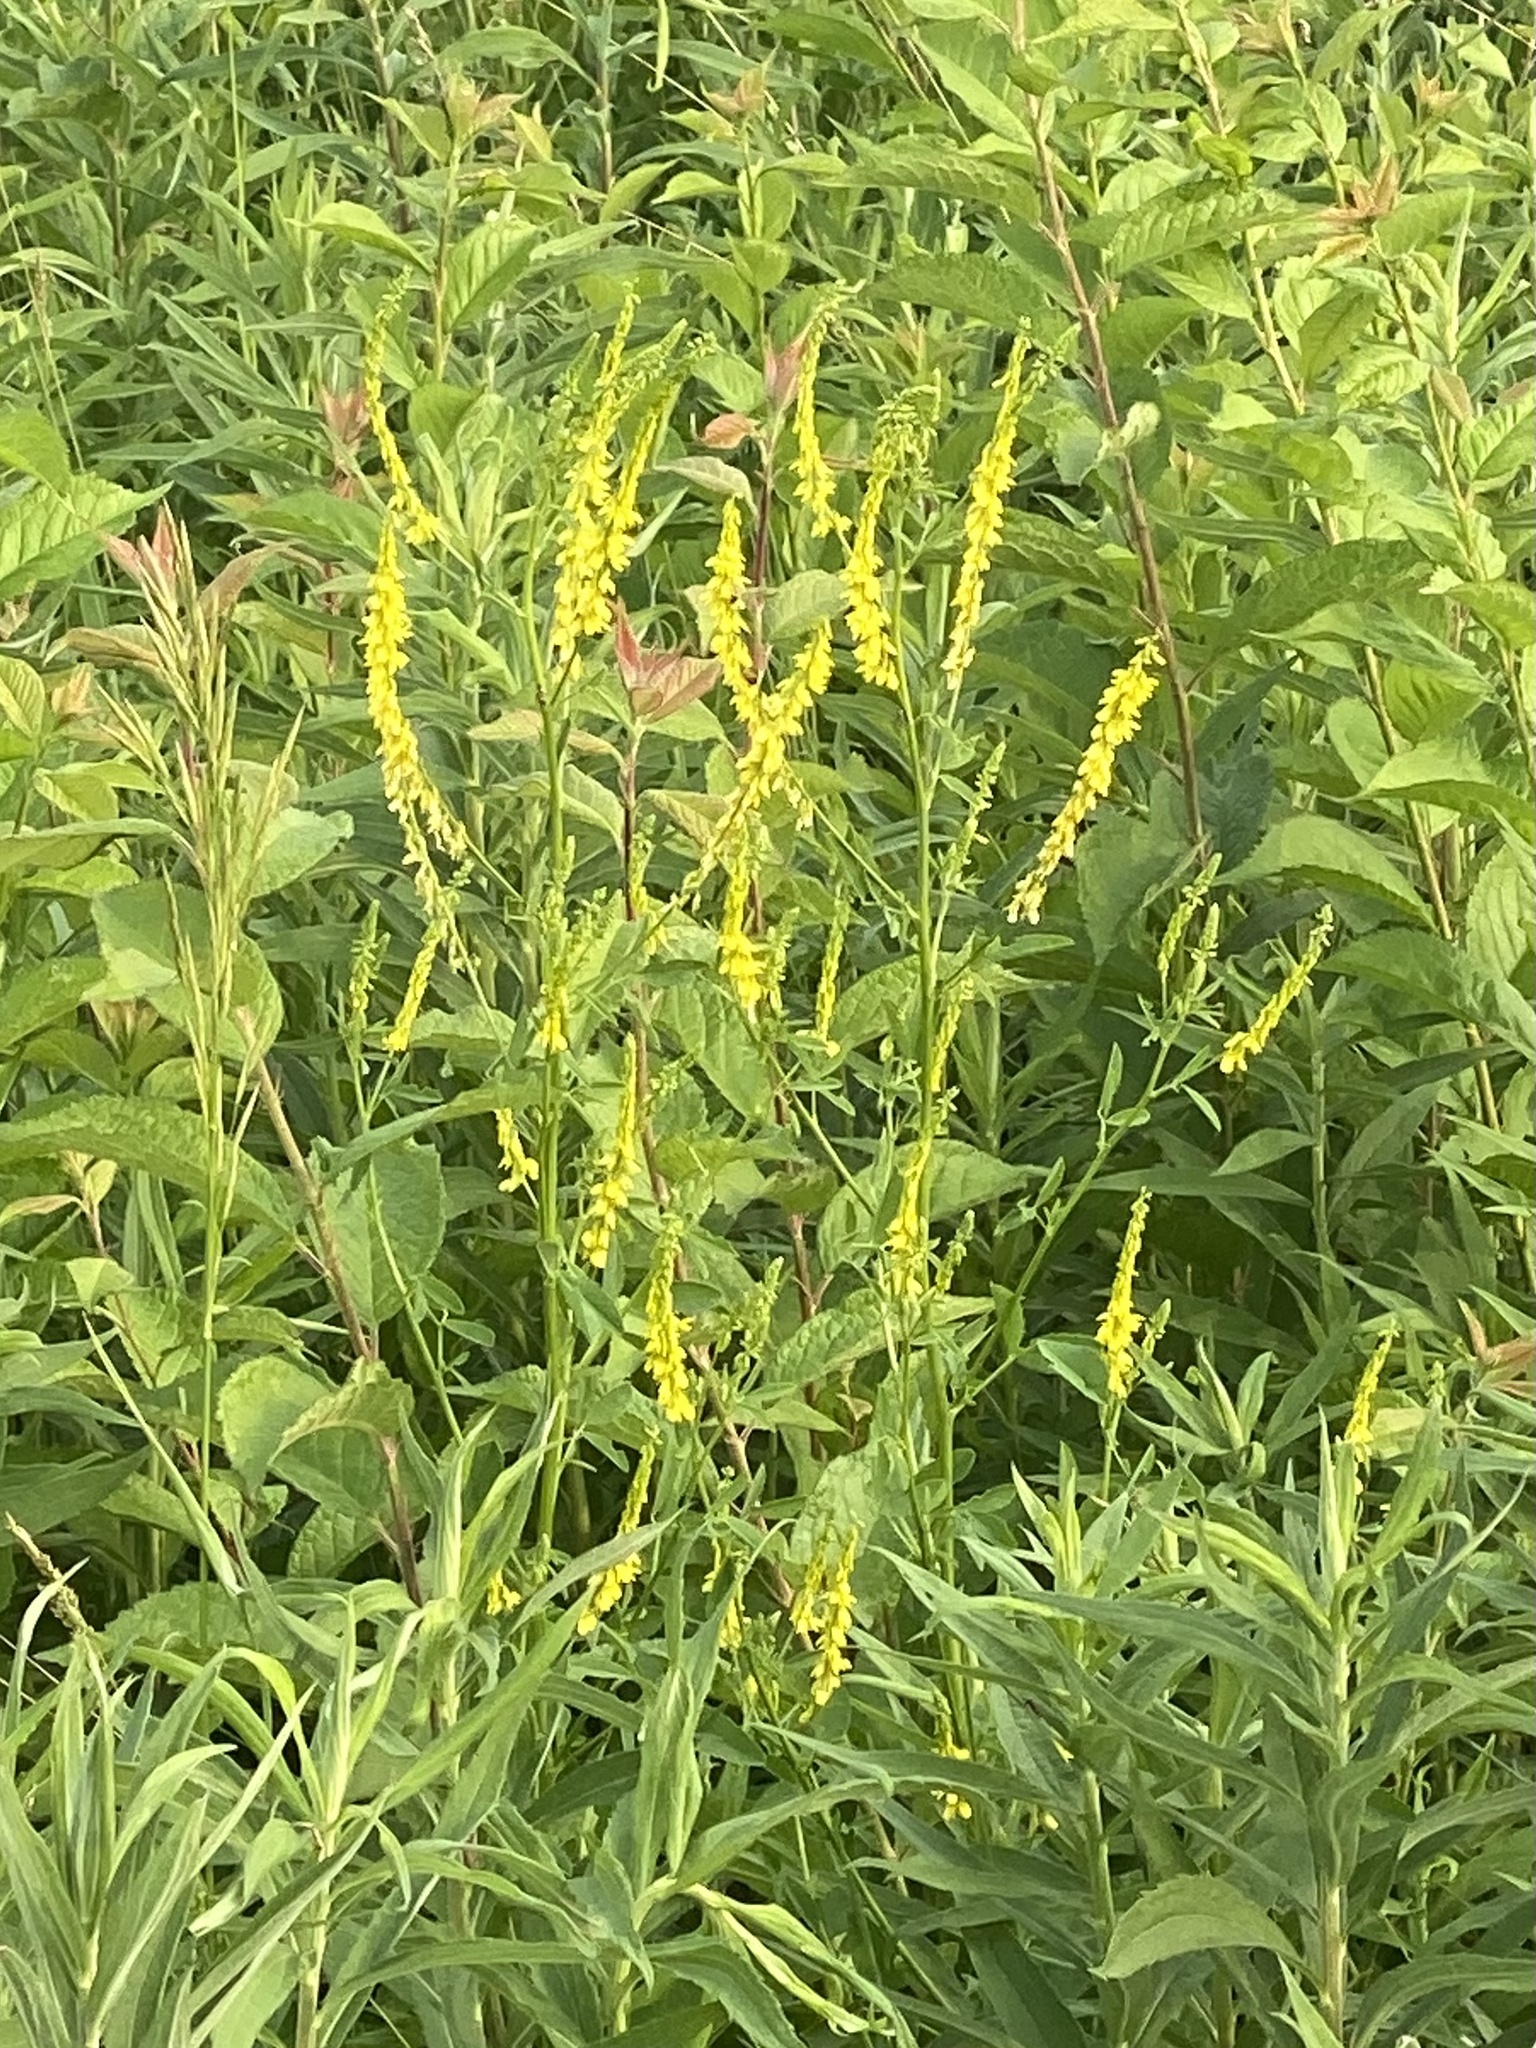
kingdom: Plantae
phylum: Tracheophyta
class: Magnoliopsida
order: Fabales
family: Fabaceae
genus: Melilotus
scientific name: Melilotus officinalis
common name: Sweetclover
